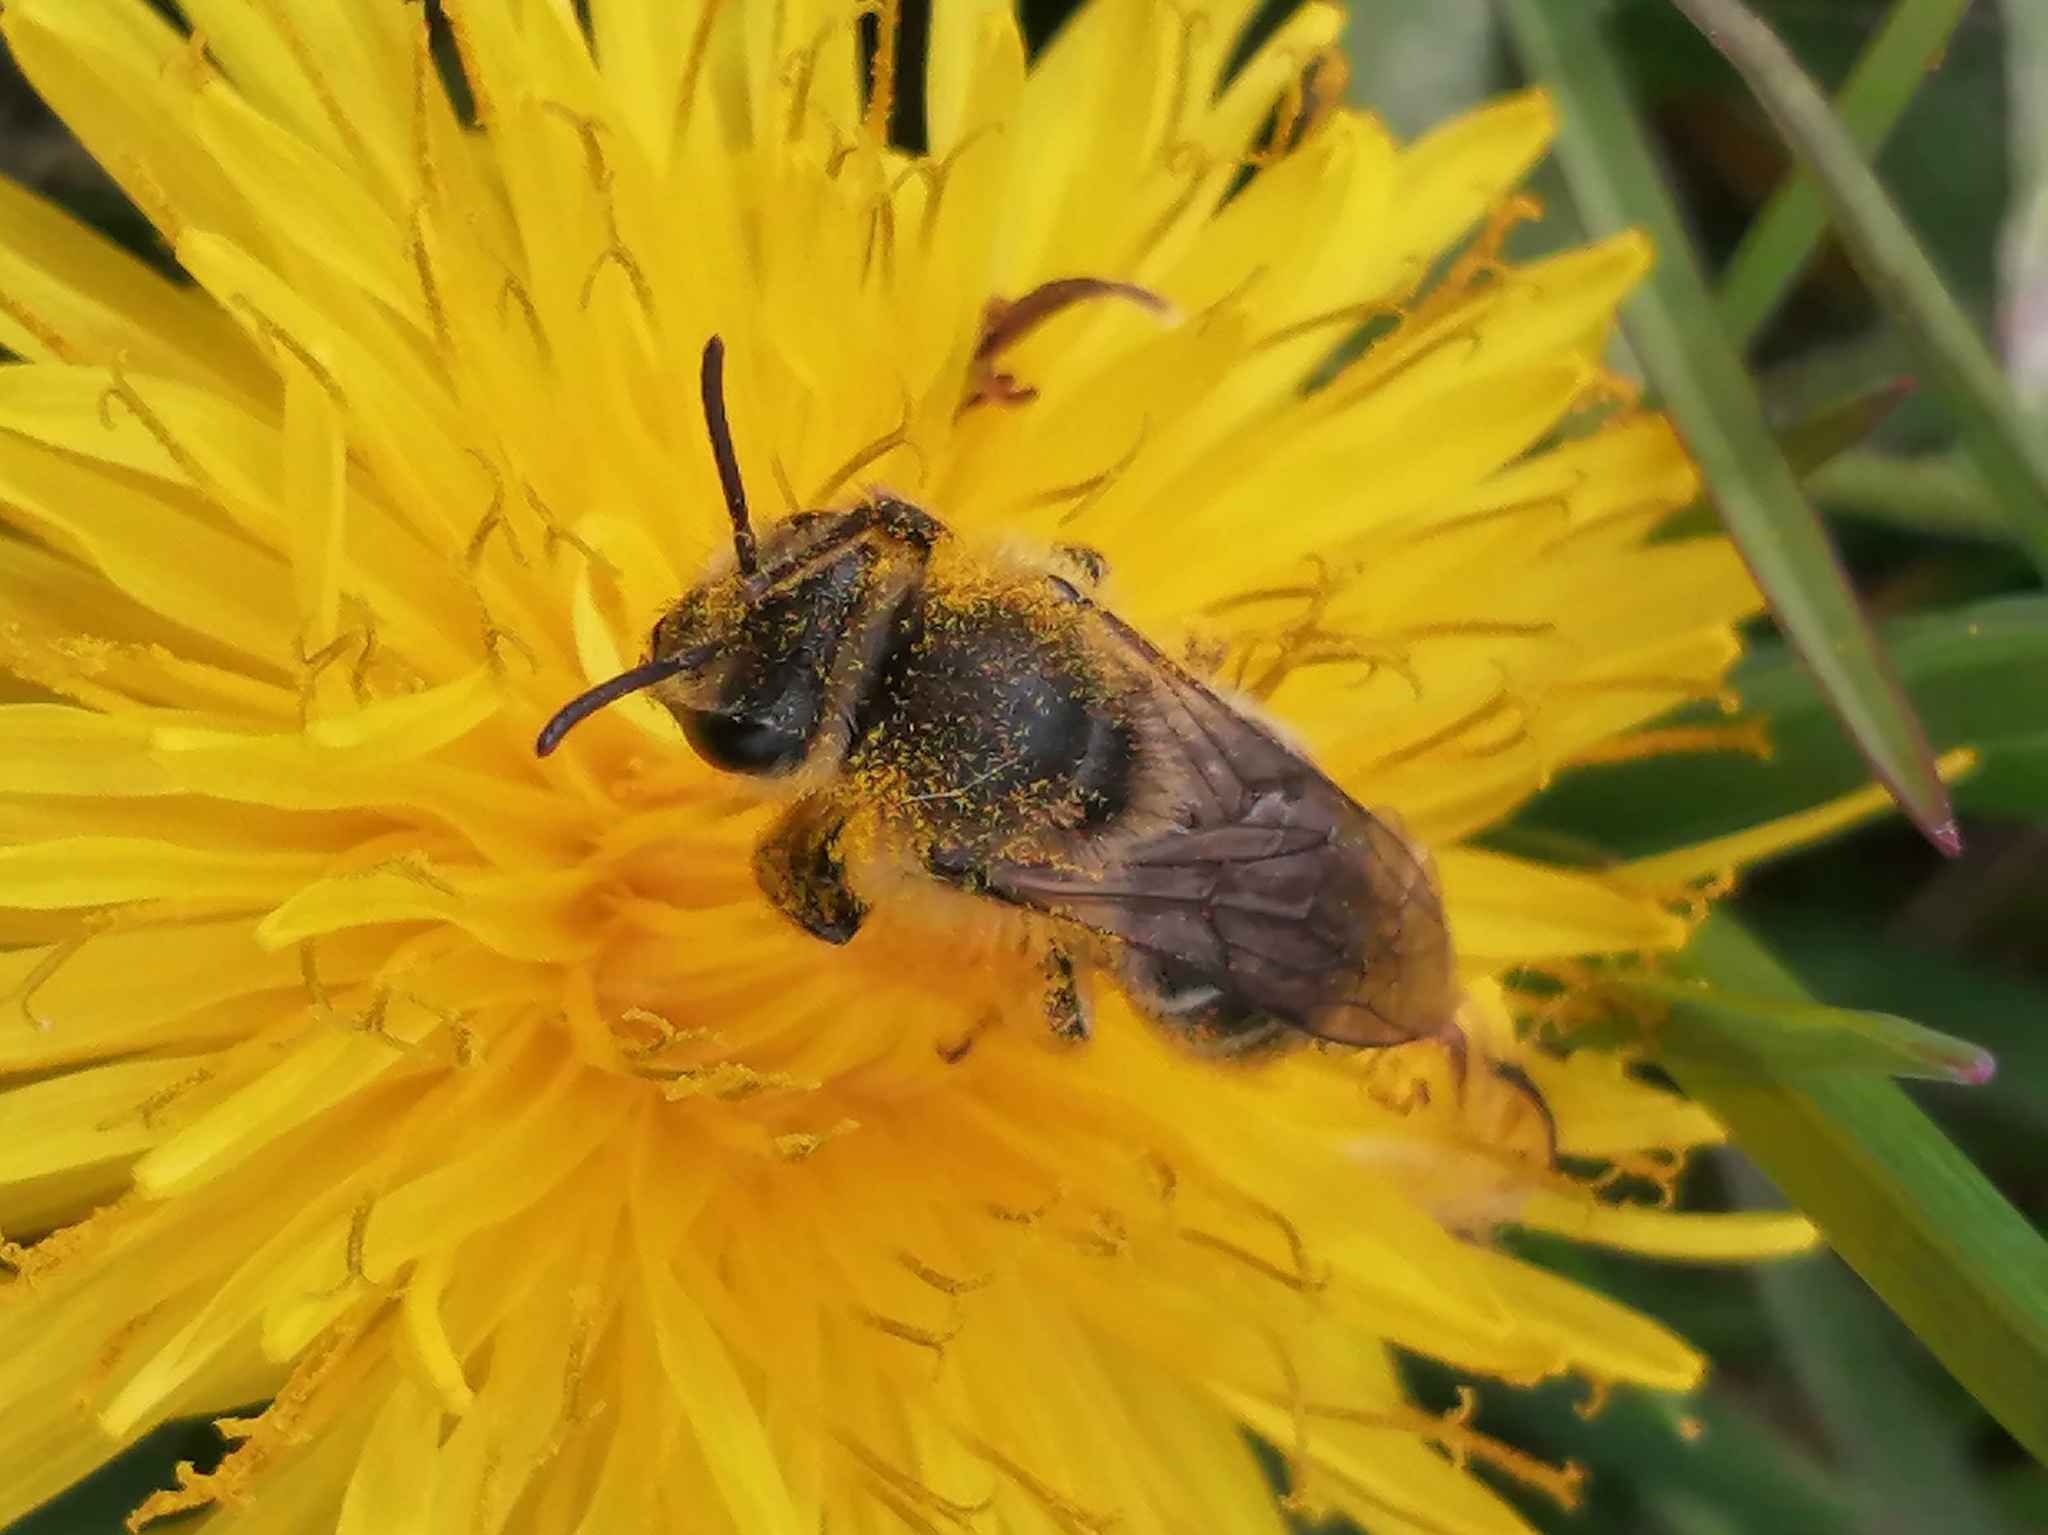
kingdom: Animalia
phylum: Arthropoda
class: Insecta
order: Hymenoptera
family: Colletidae
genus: Colletes
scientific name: Colletes inaequalis
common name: Unequal cellophane bee
